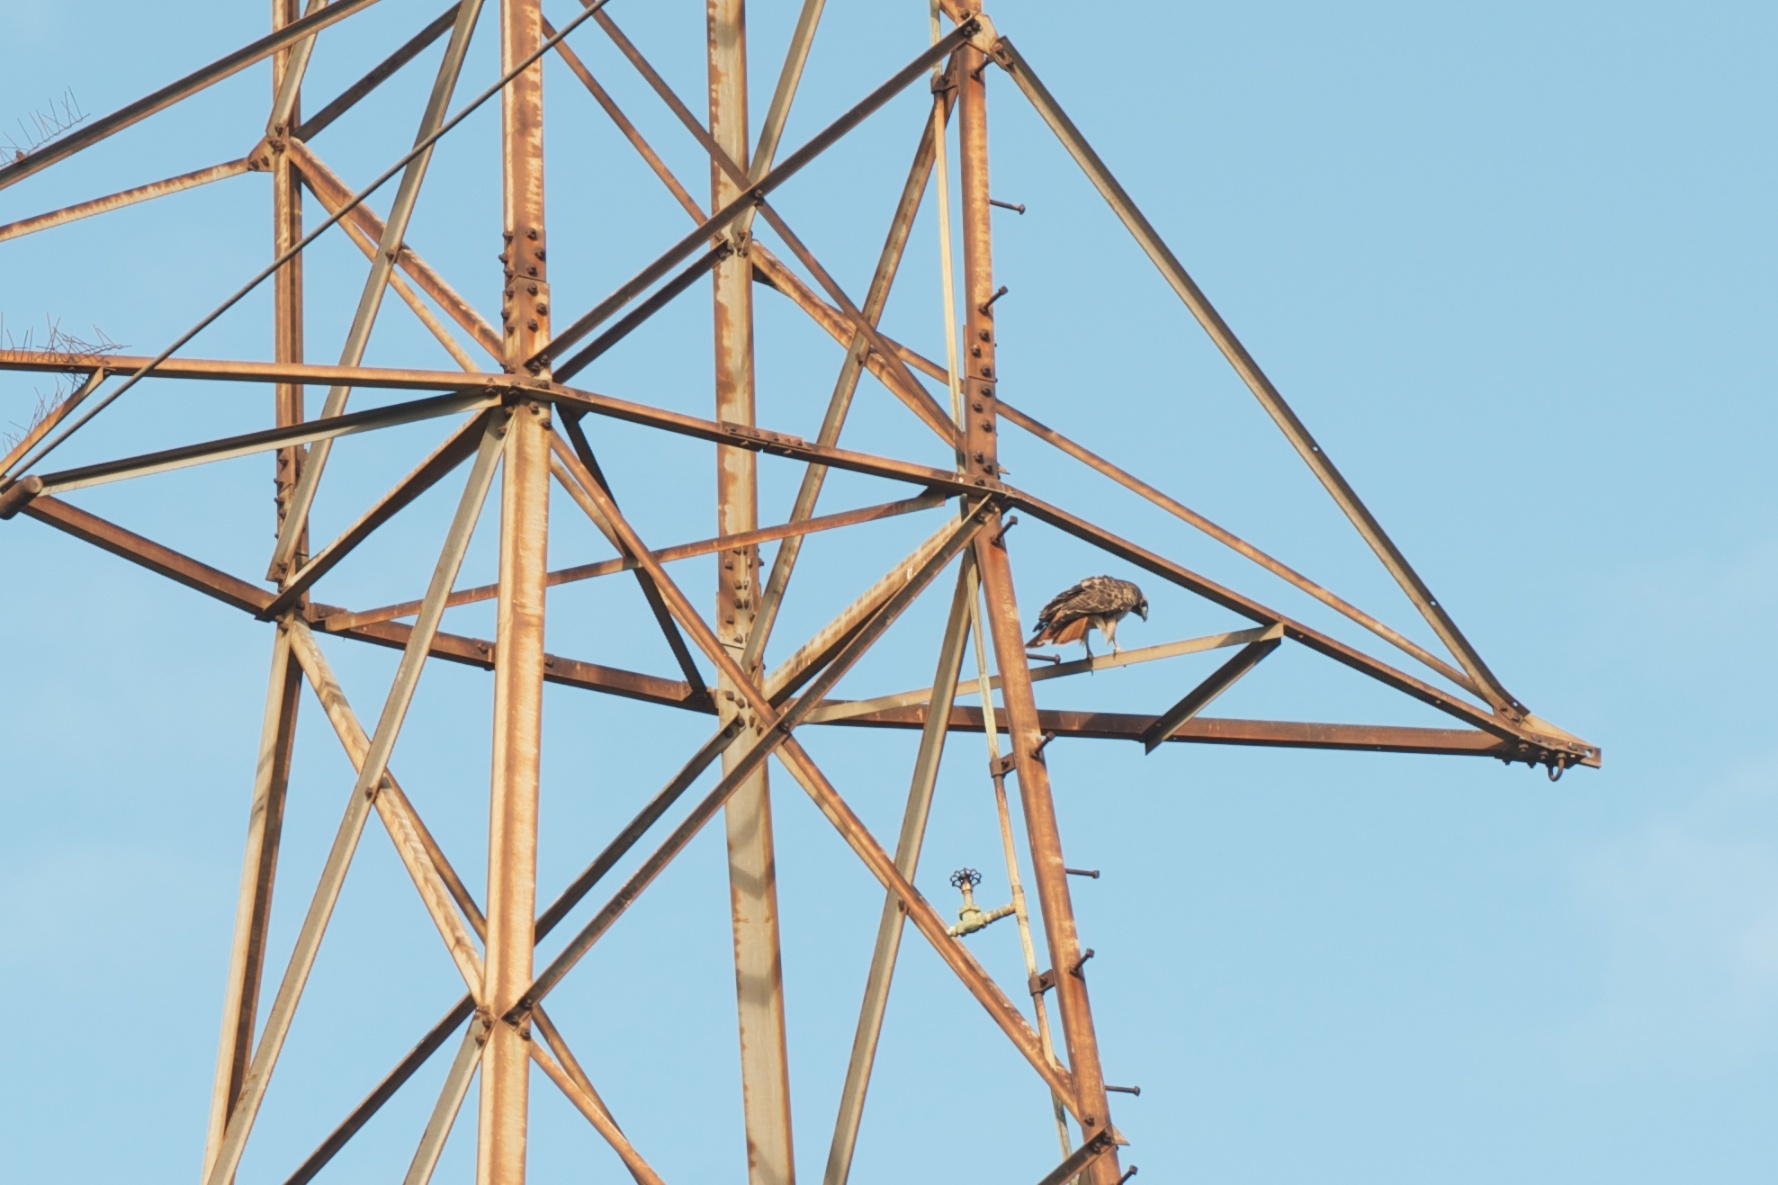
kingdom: Animalia
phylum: Chordata
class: Aves
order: Accipitriformes
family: Accipitridae
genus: Buteo
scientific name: Buteo jamaicensis
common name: Red-tailed hawk
